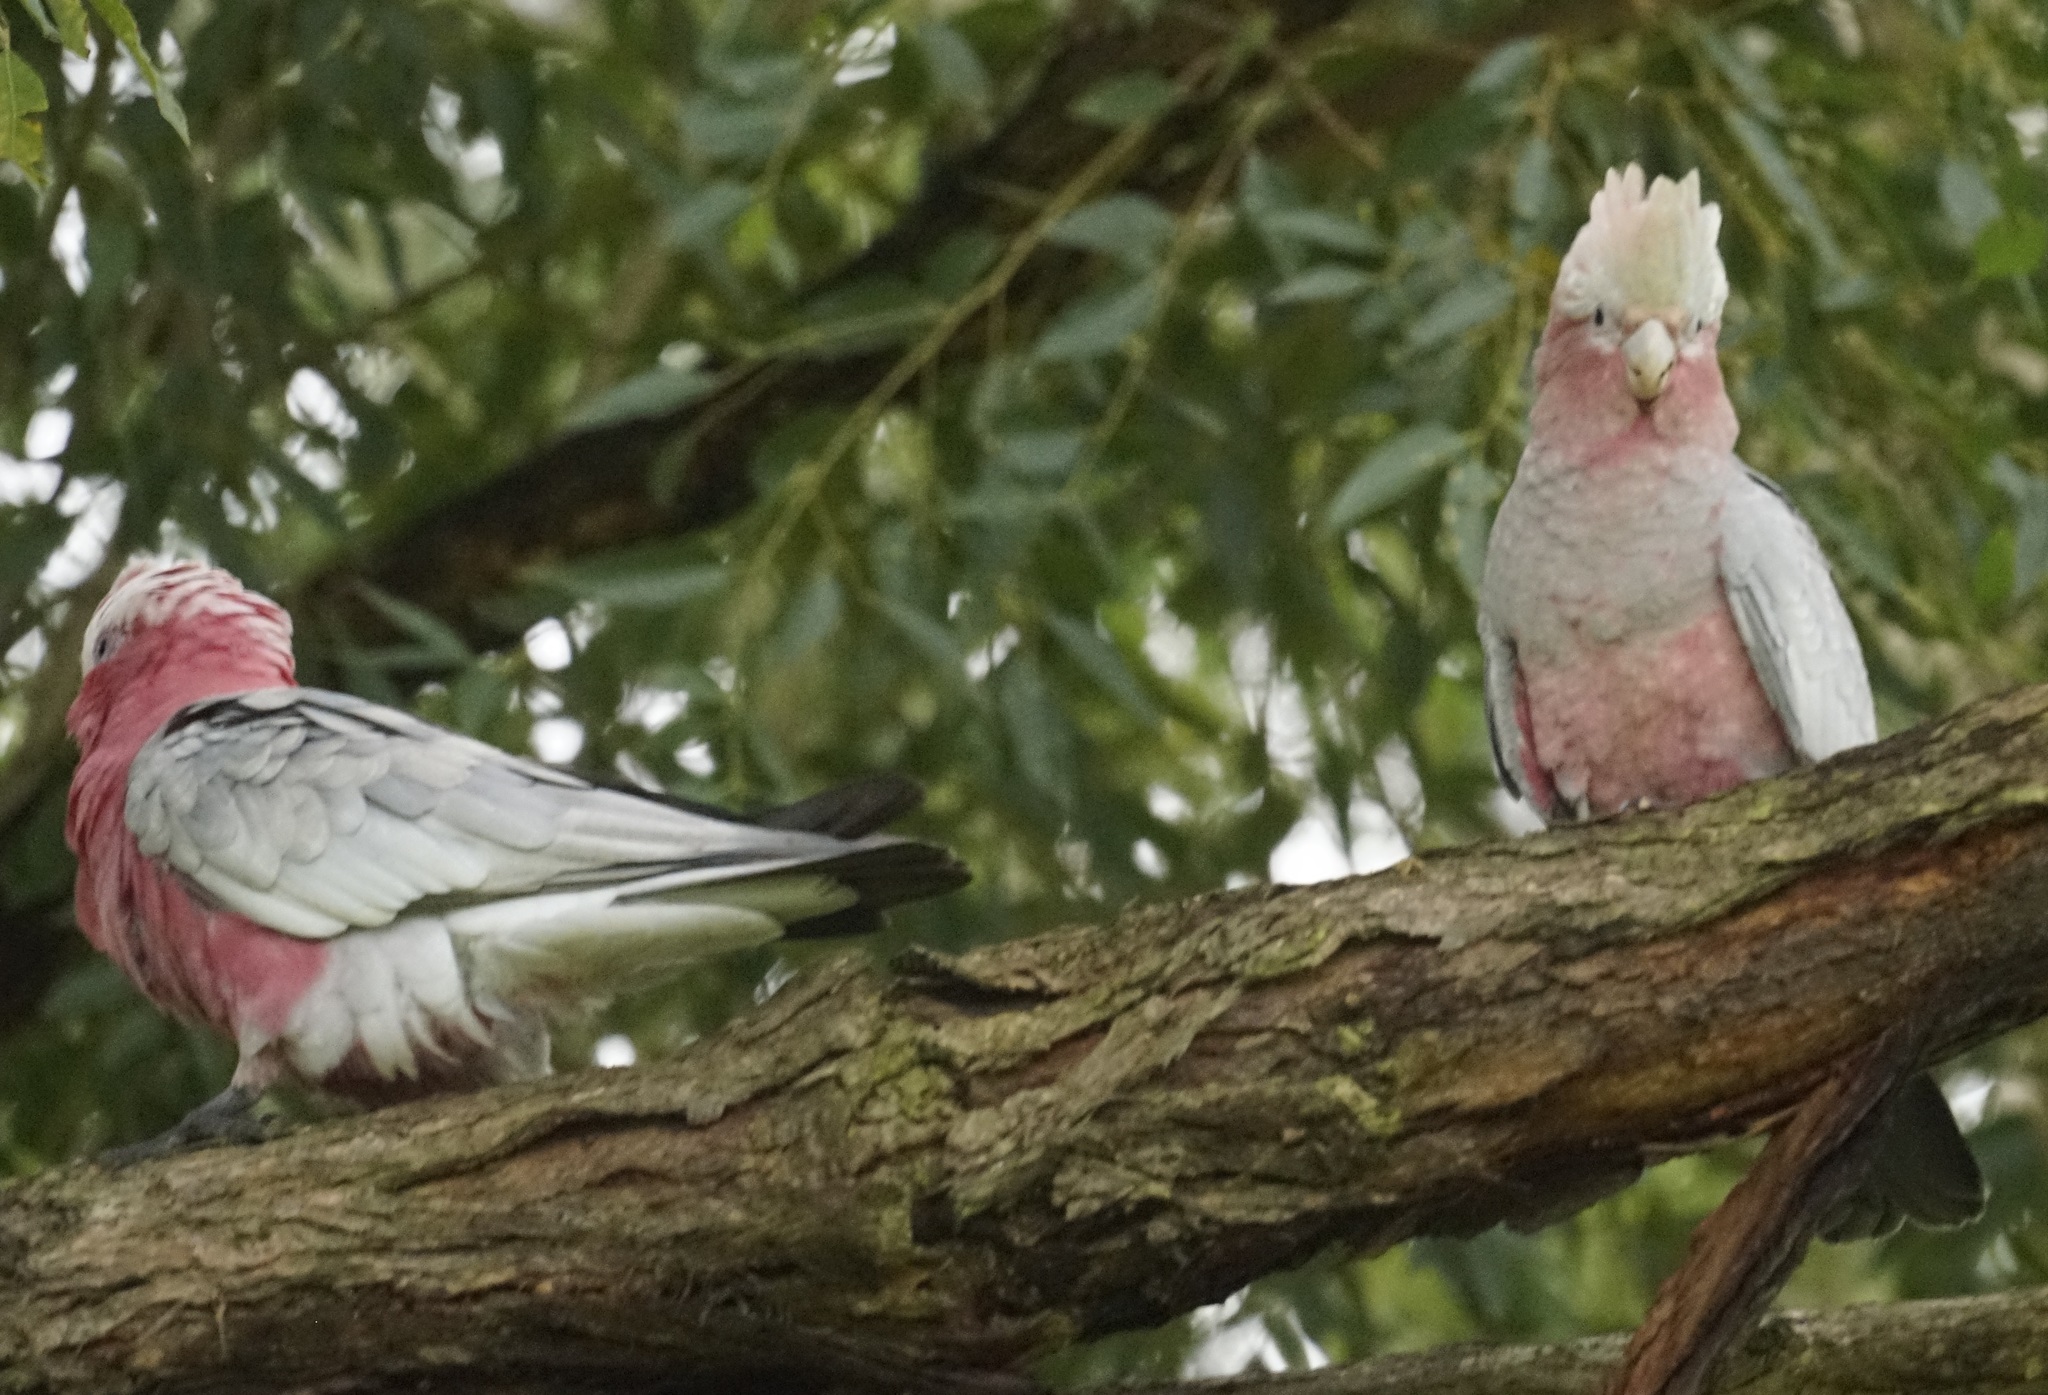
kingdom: Animalia
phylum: Chordata
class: Aves
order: Psittaciformes
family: Psittacidae
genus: Eolophus
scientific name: Eolophus roseicapilla
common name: Galah
